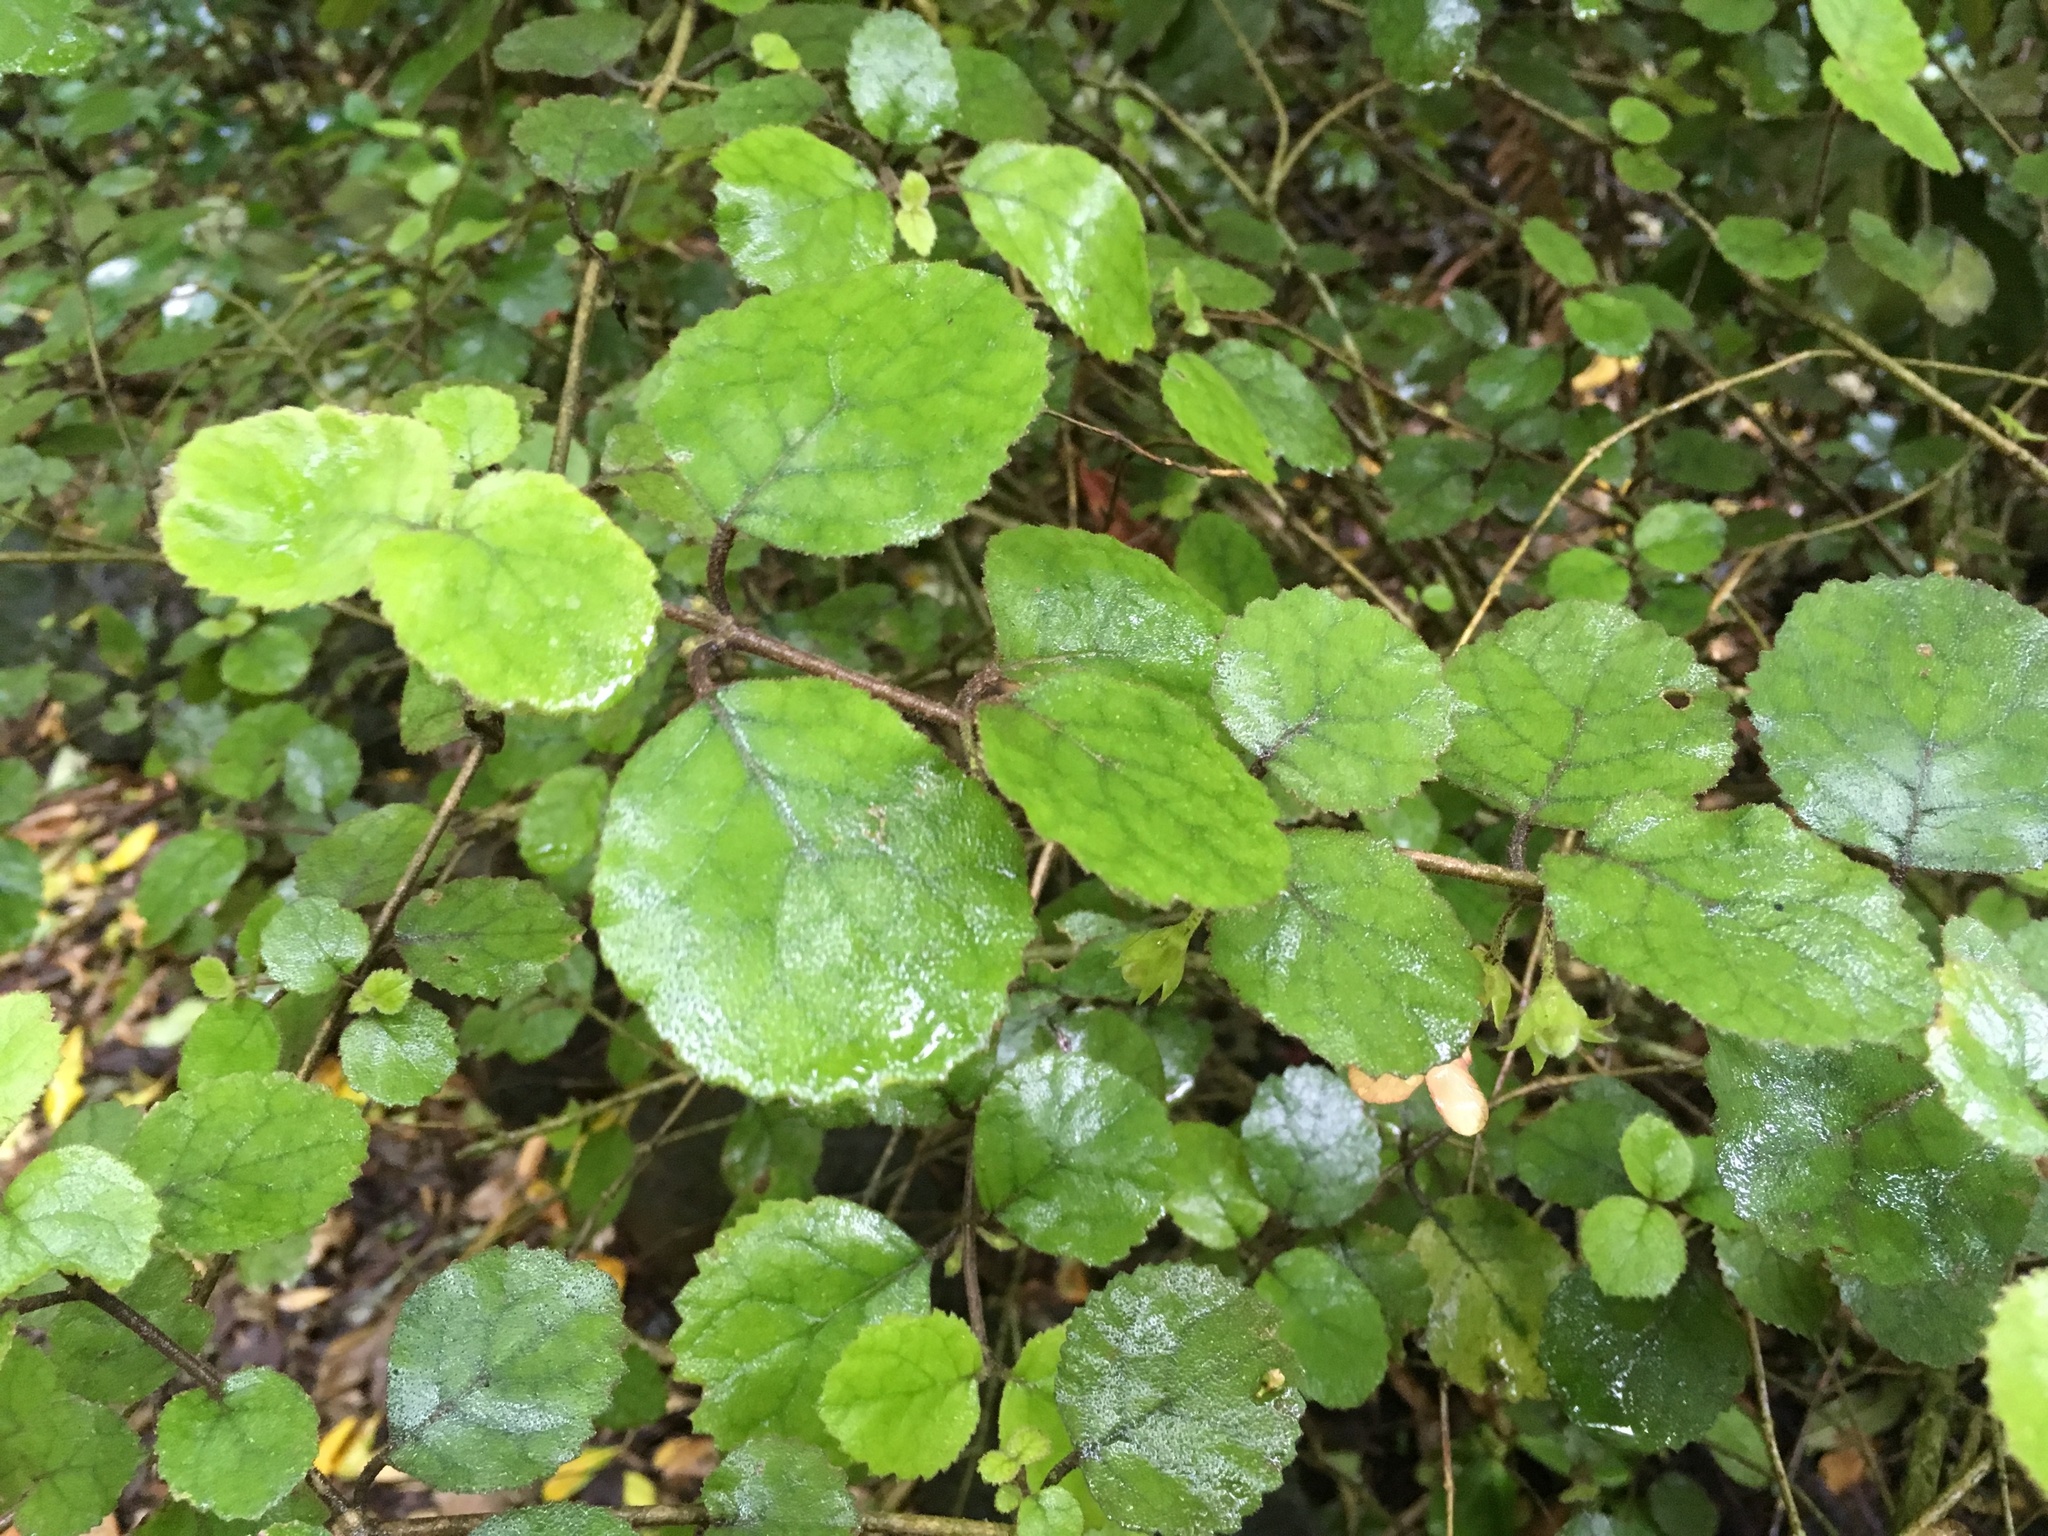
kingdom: Plantae
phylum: Tracheophyta
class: Magnoliopsida
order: Lamiales
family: Gesneriaceae
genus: Rhabdothamnus
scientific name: Rhabdothamnus solandri
